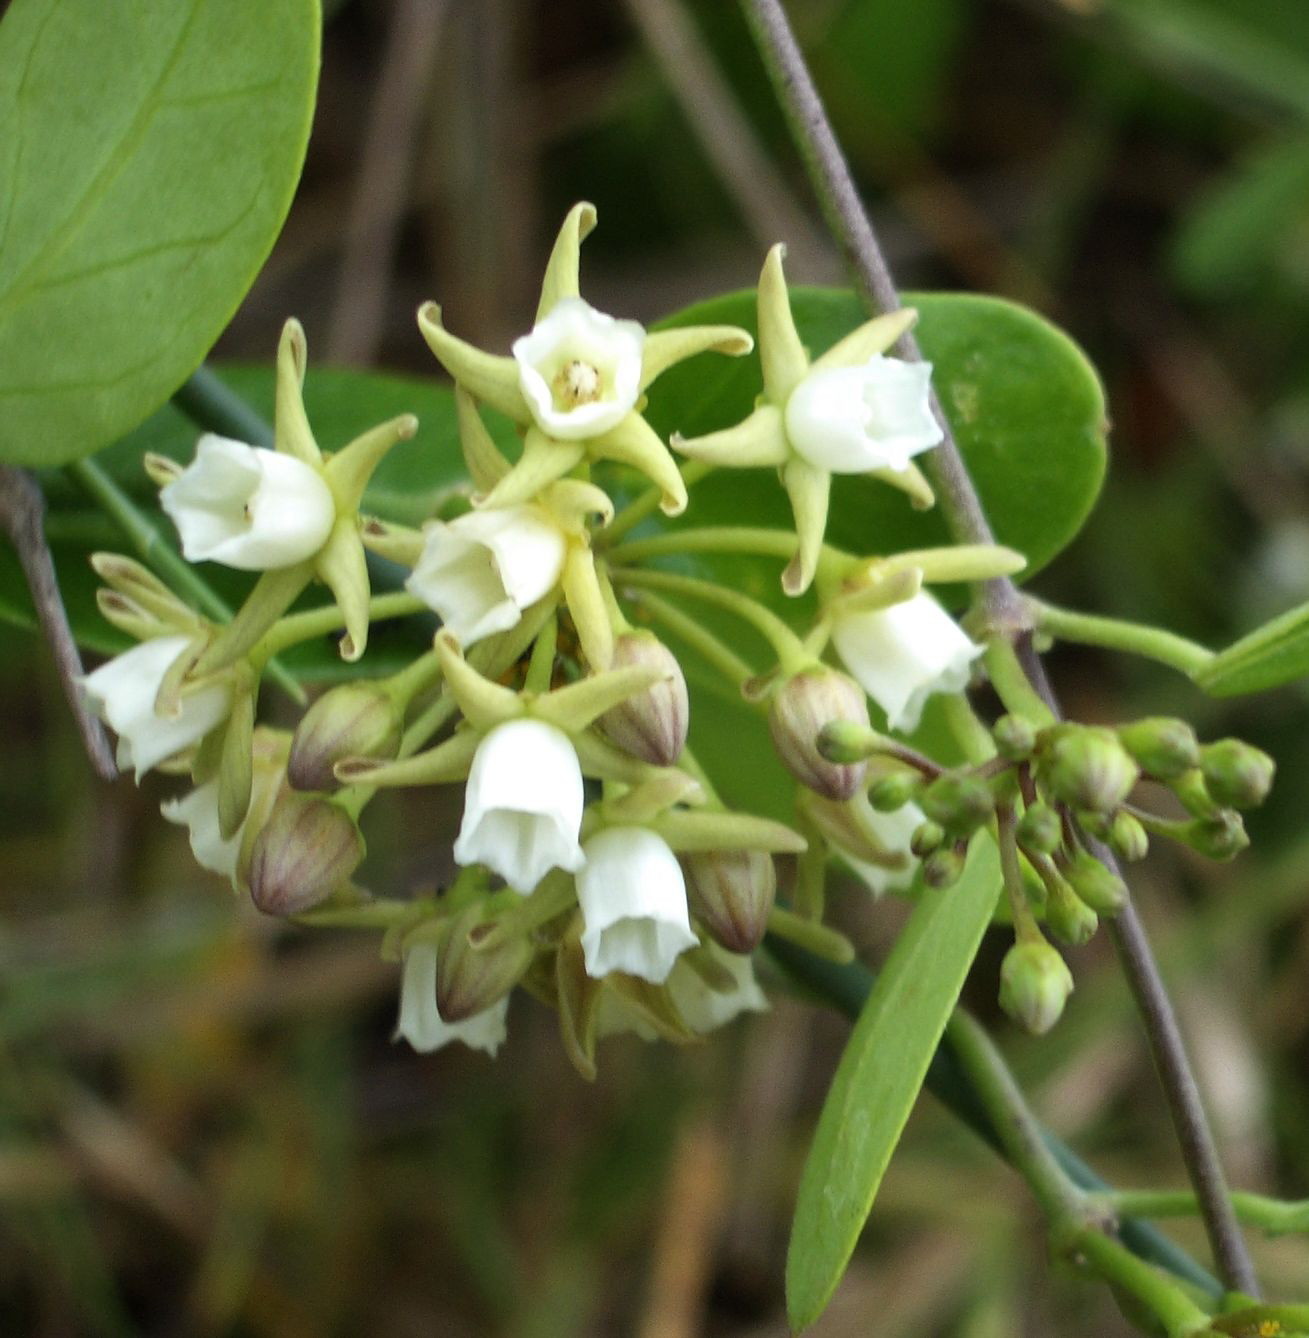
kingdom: Plantae
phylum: Tracheophyta
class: Magnoliopsida
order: Gentianales
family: Apocynaceae
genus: Cynanchum
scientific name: Cynanchum ellipticum
